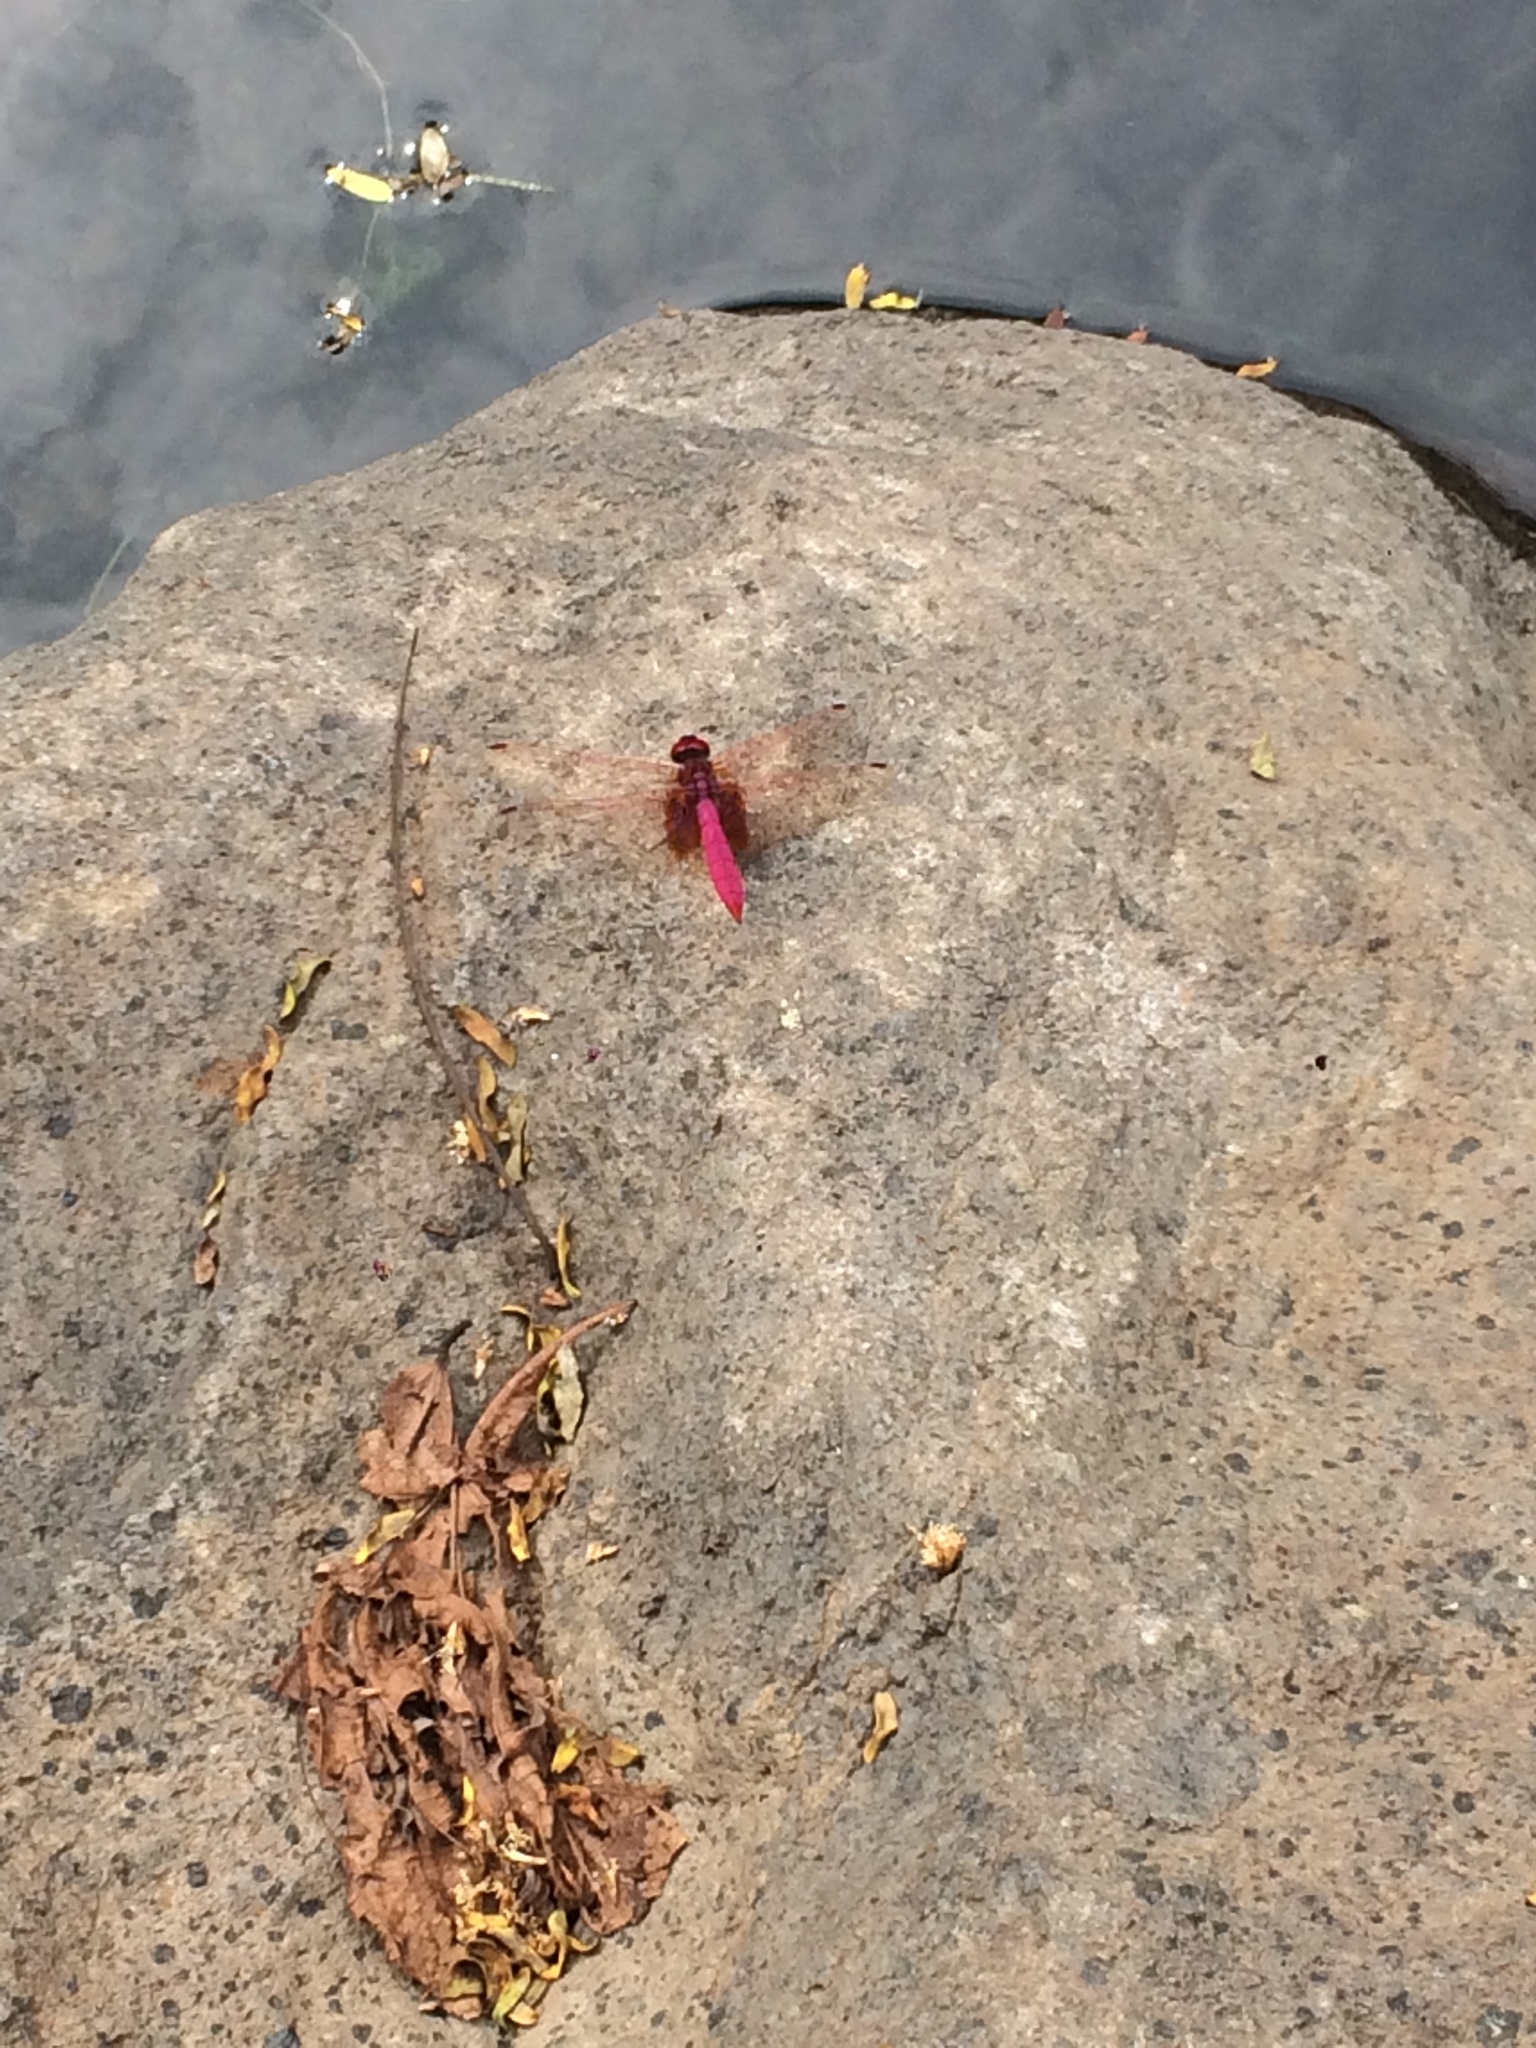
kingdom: Animalia
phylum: Arthropoda
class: Insecta
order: Odonata
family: Libellulidae
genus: Trithemis
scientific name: Trithemis aurora
